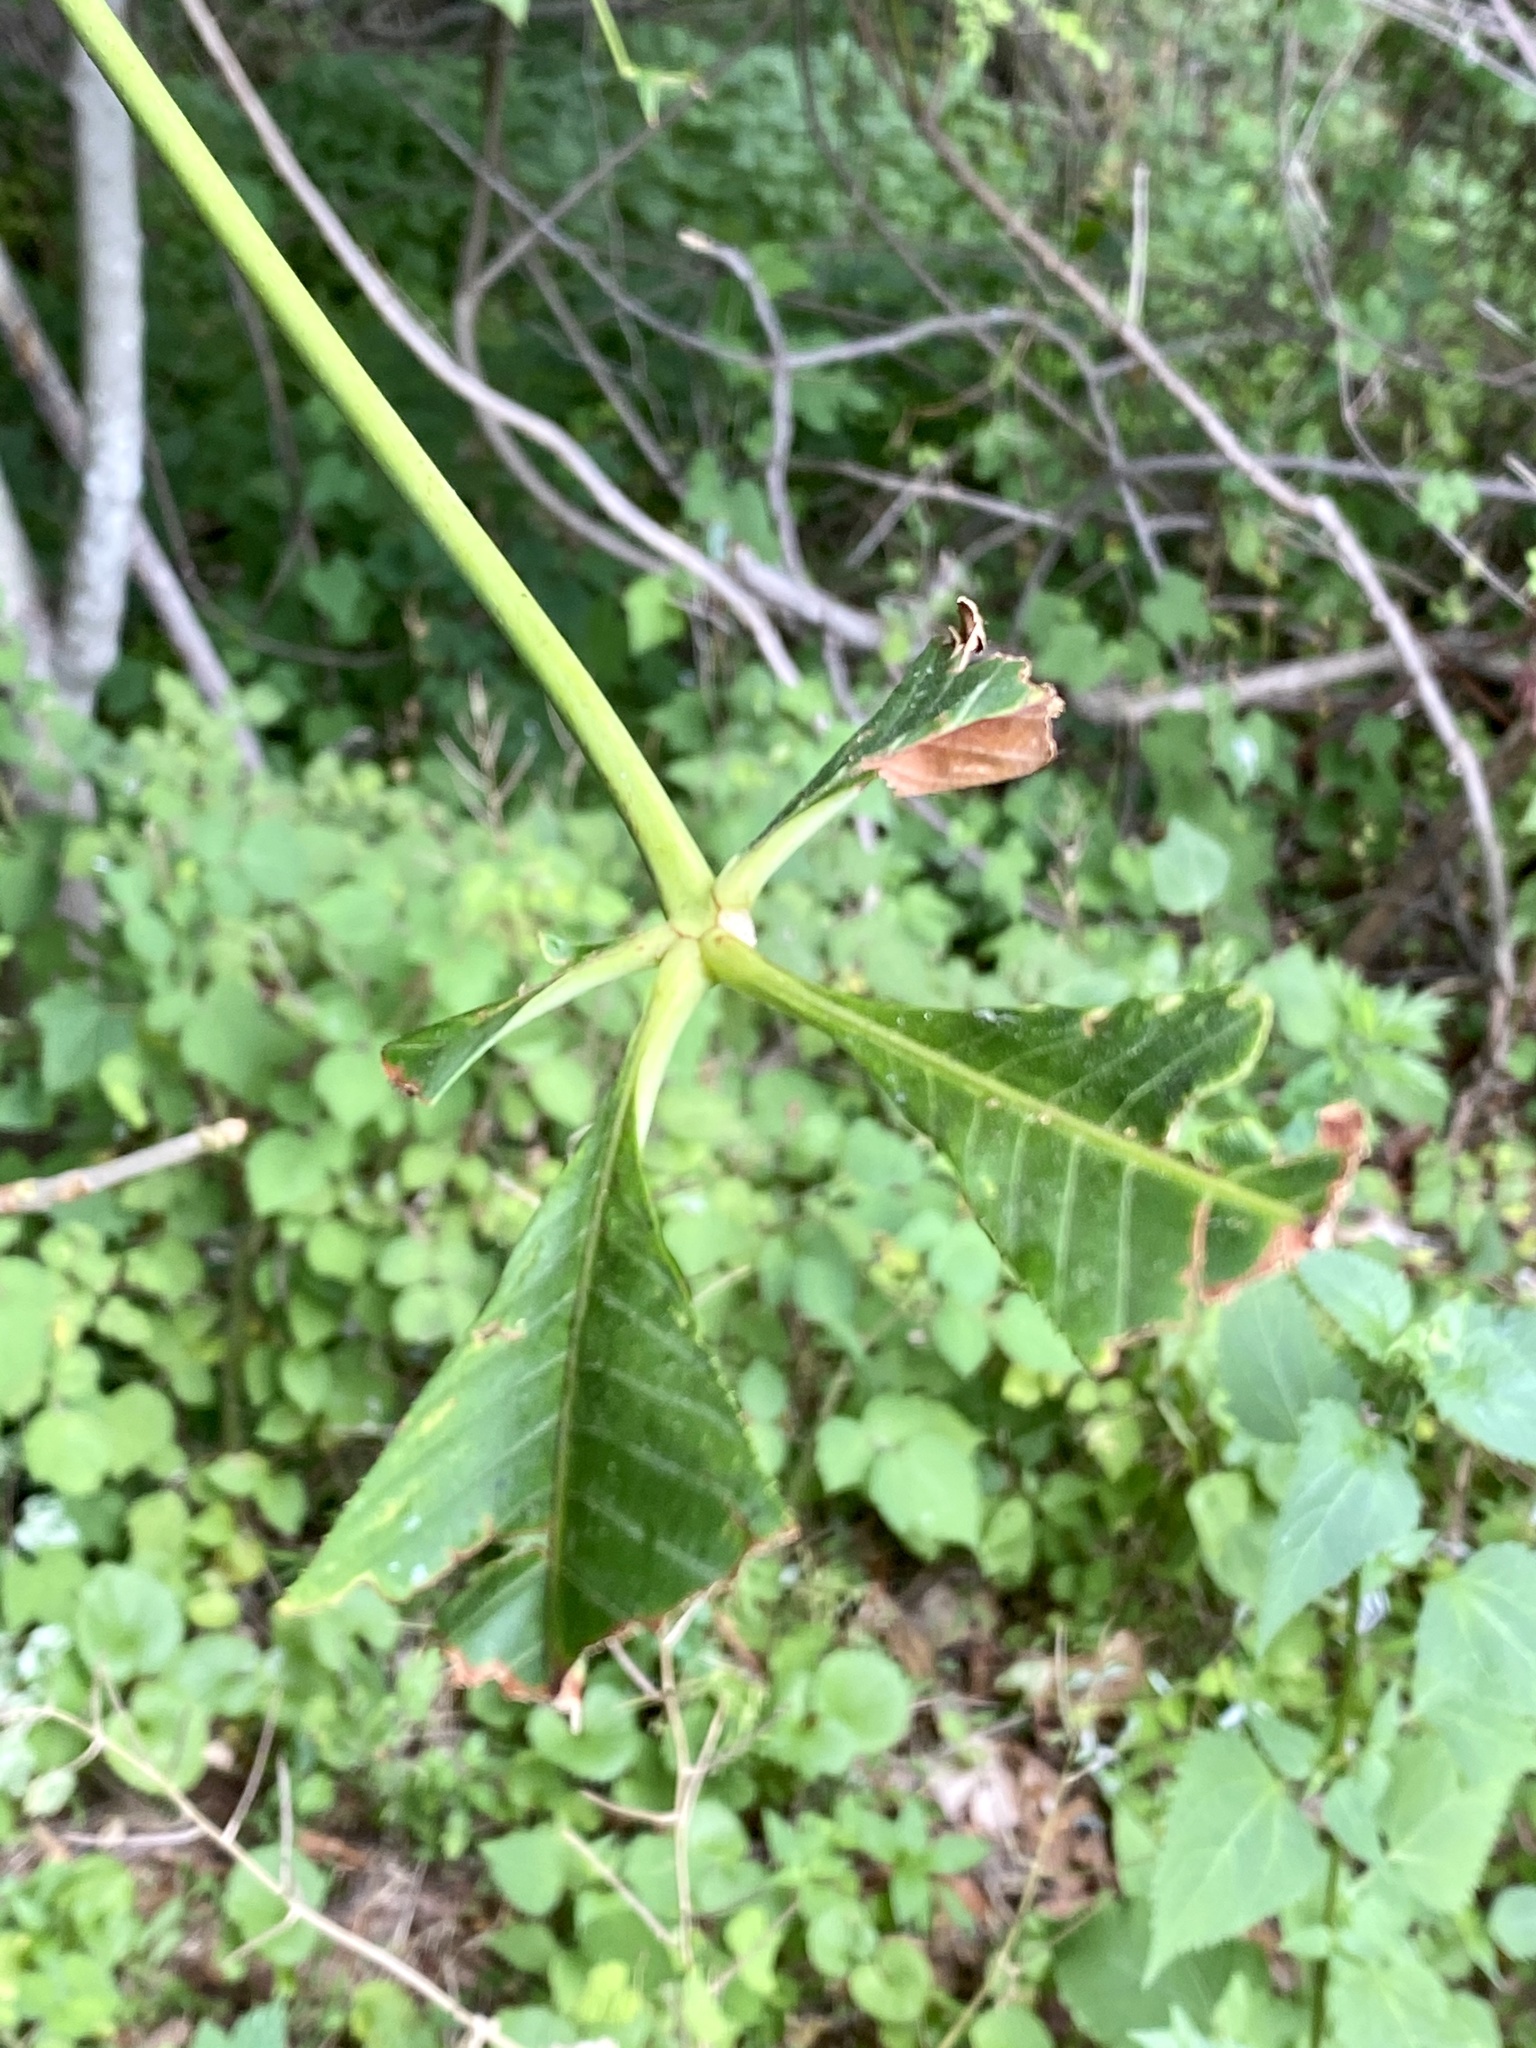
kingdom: Plantae
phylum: Tracheophyta
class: Magnoliopsida
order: Sapindales
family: Sapindaceae
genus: Aesculus
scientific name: Aesculus flava
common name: Yellow buckeye
